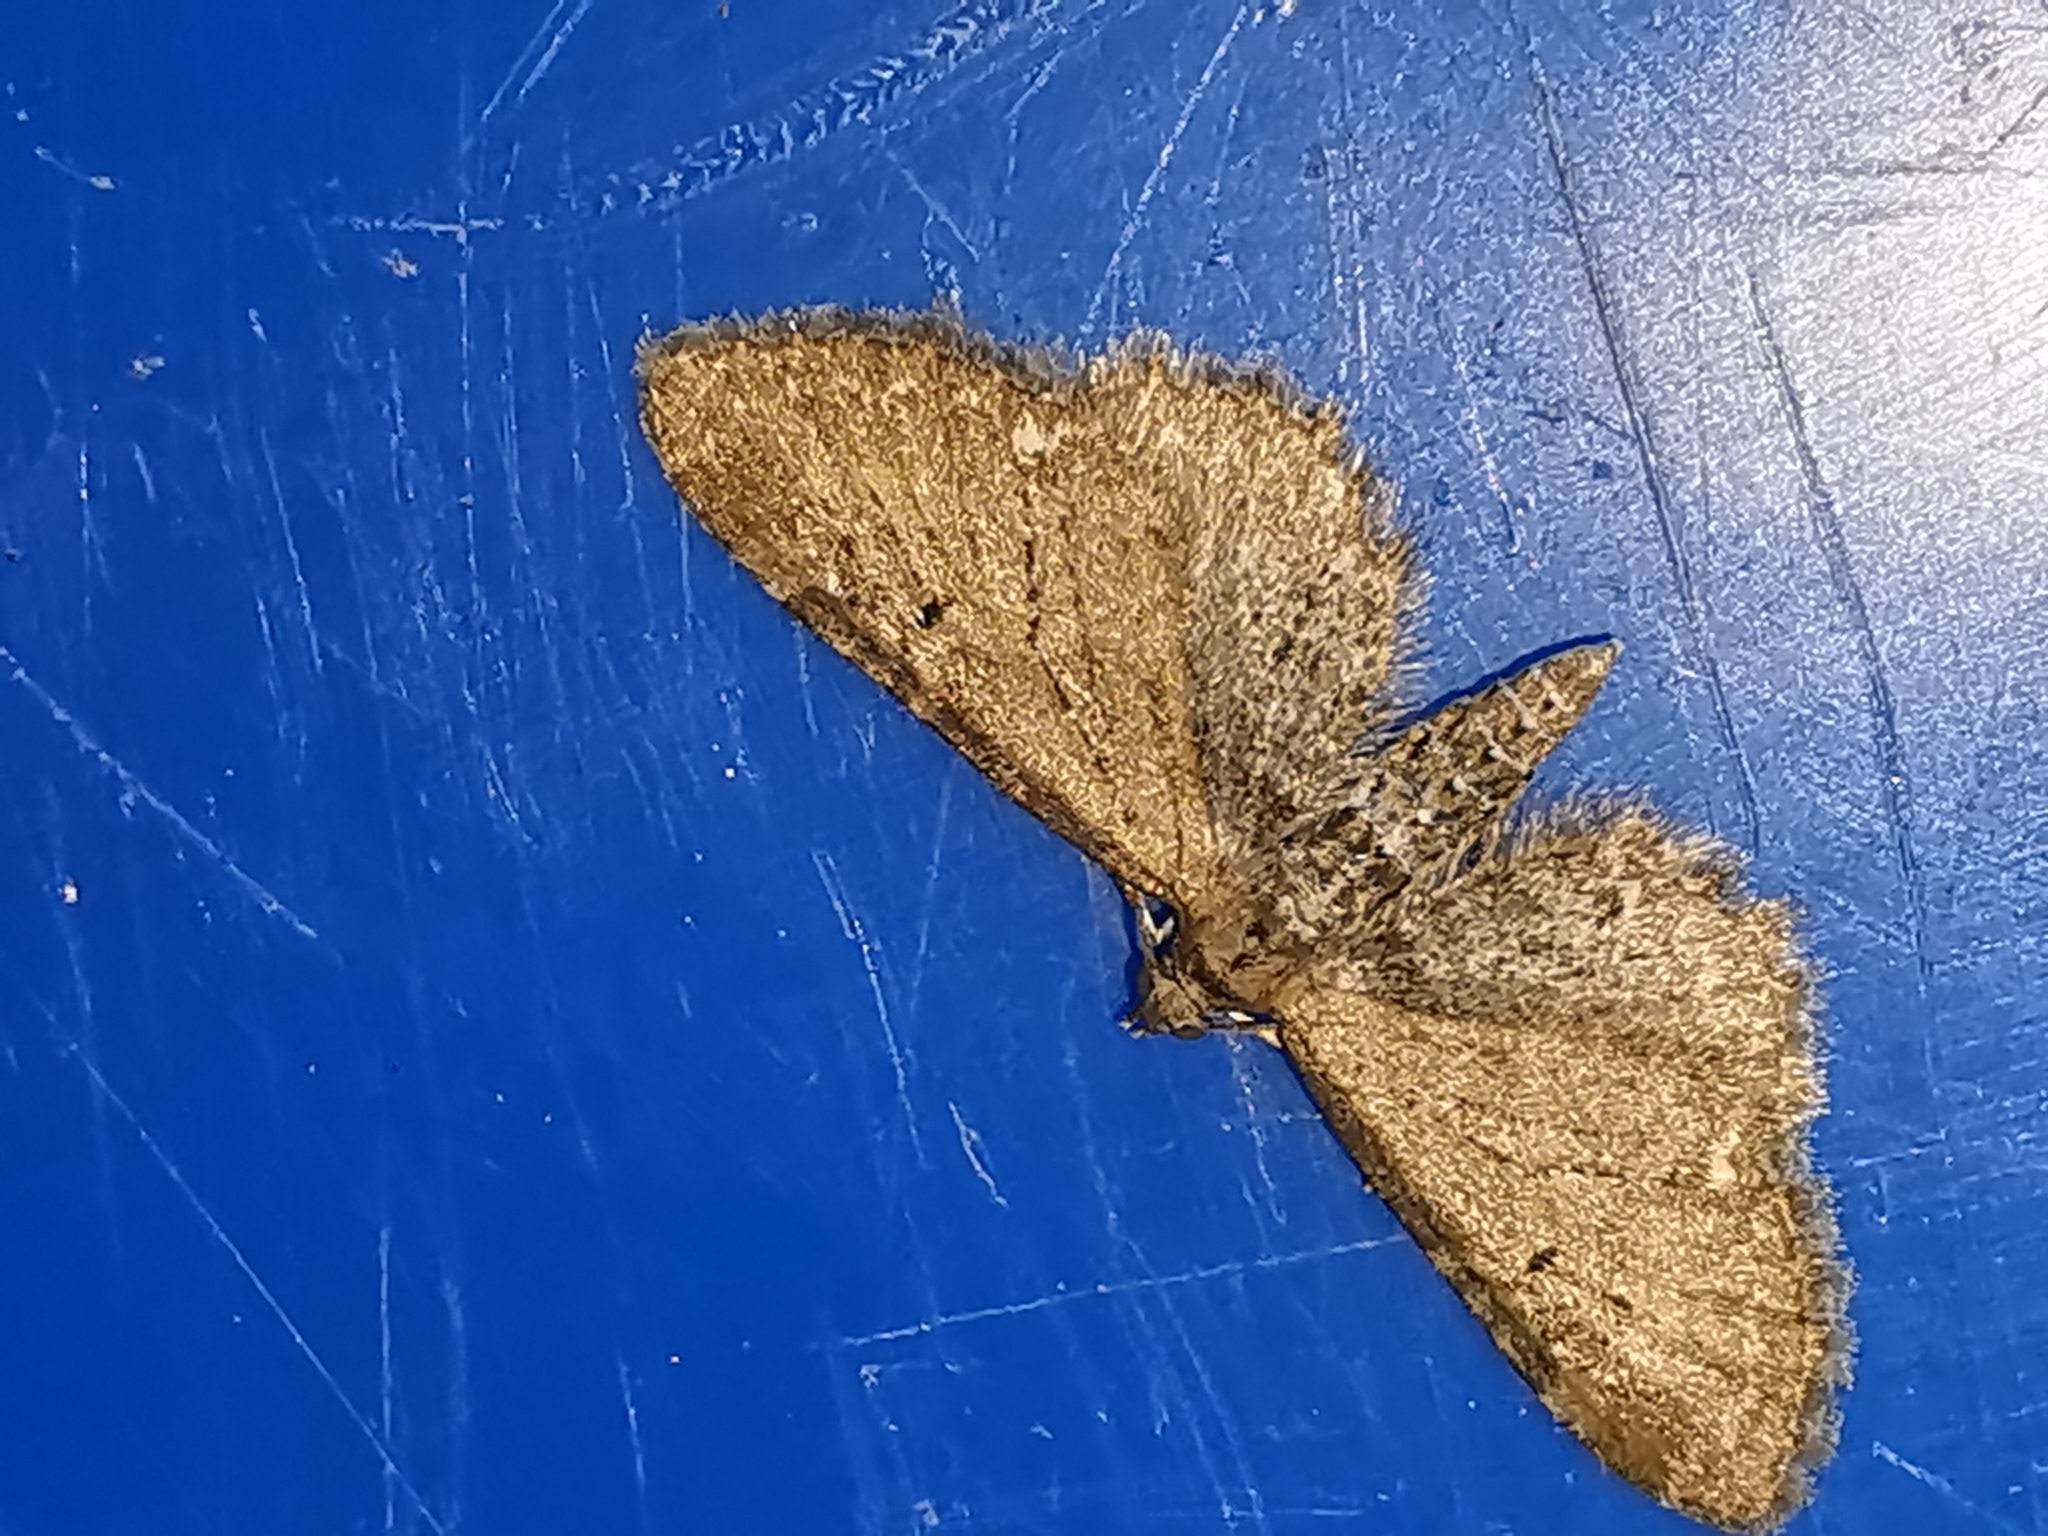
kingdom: Animalia
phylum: Arthropoda
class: Insecta
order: Lepidoptera
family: Geometridae
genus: Eupithecia
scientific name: Eupithecia vulgata
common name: Common pug
